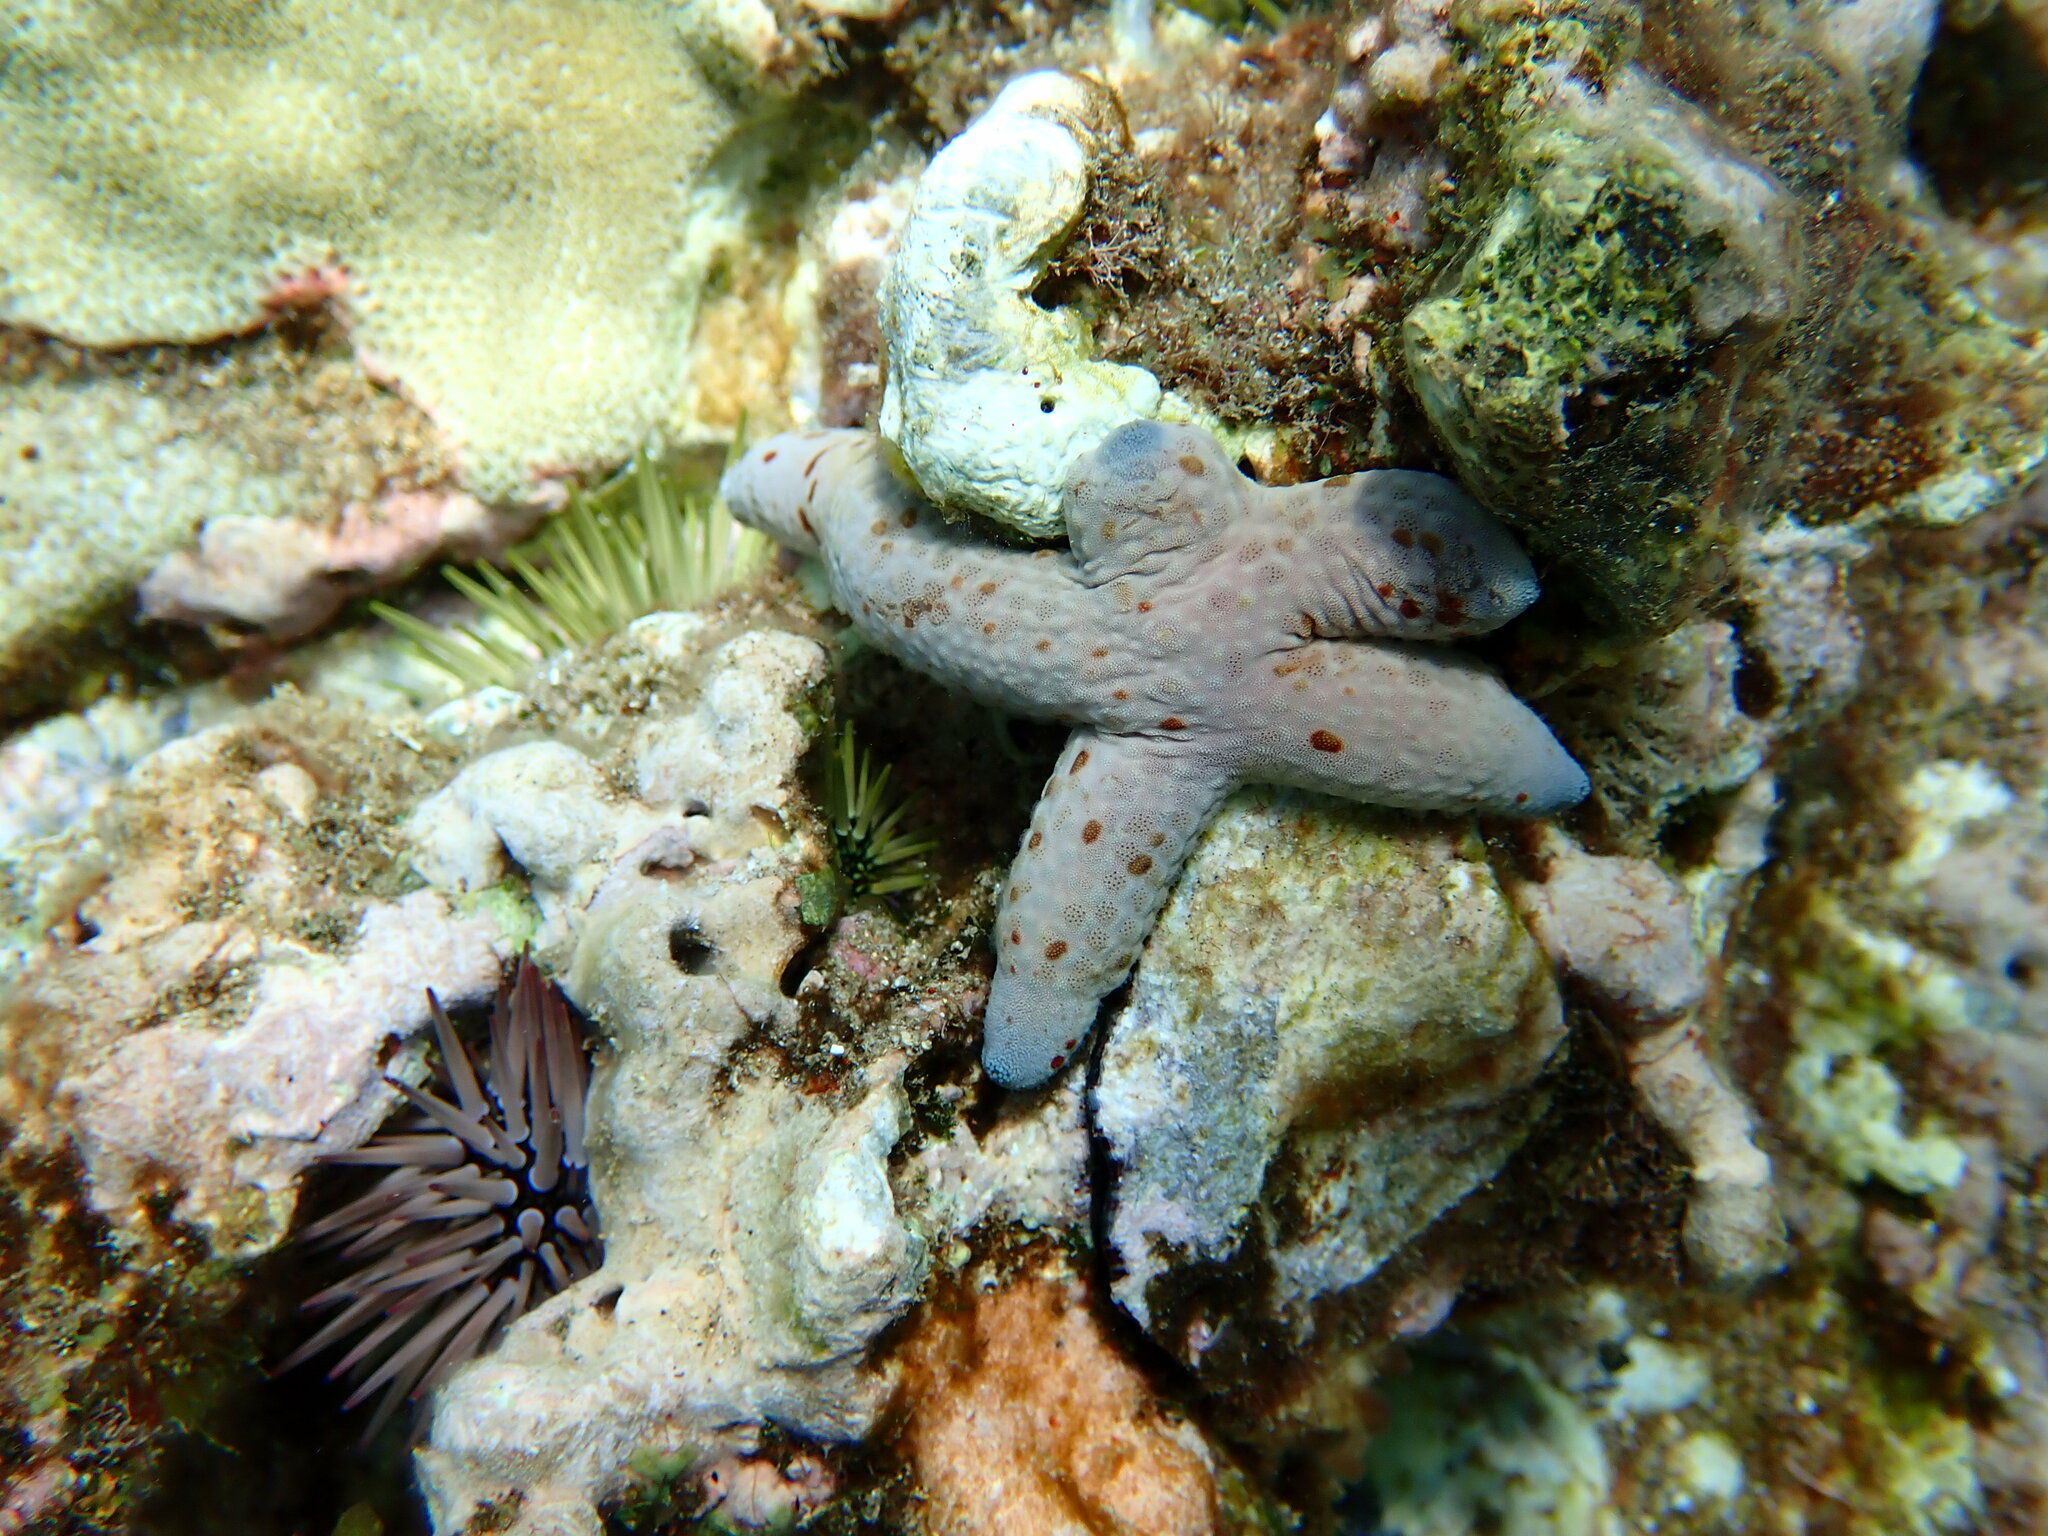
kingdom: Animalia
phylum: Echinodermata
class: Asteroidea
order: Valvatida
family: Ophidiasteridae
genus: Linckia
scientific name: Linckia multifora
